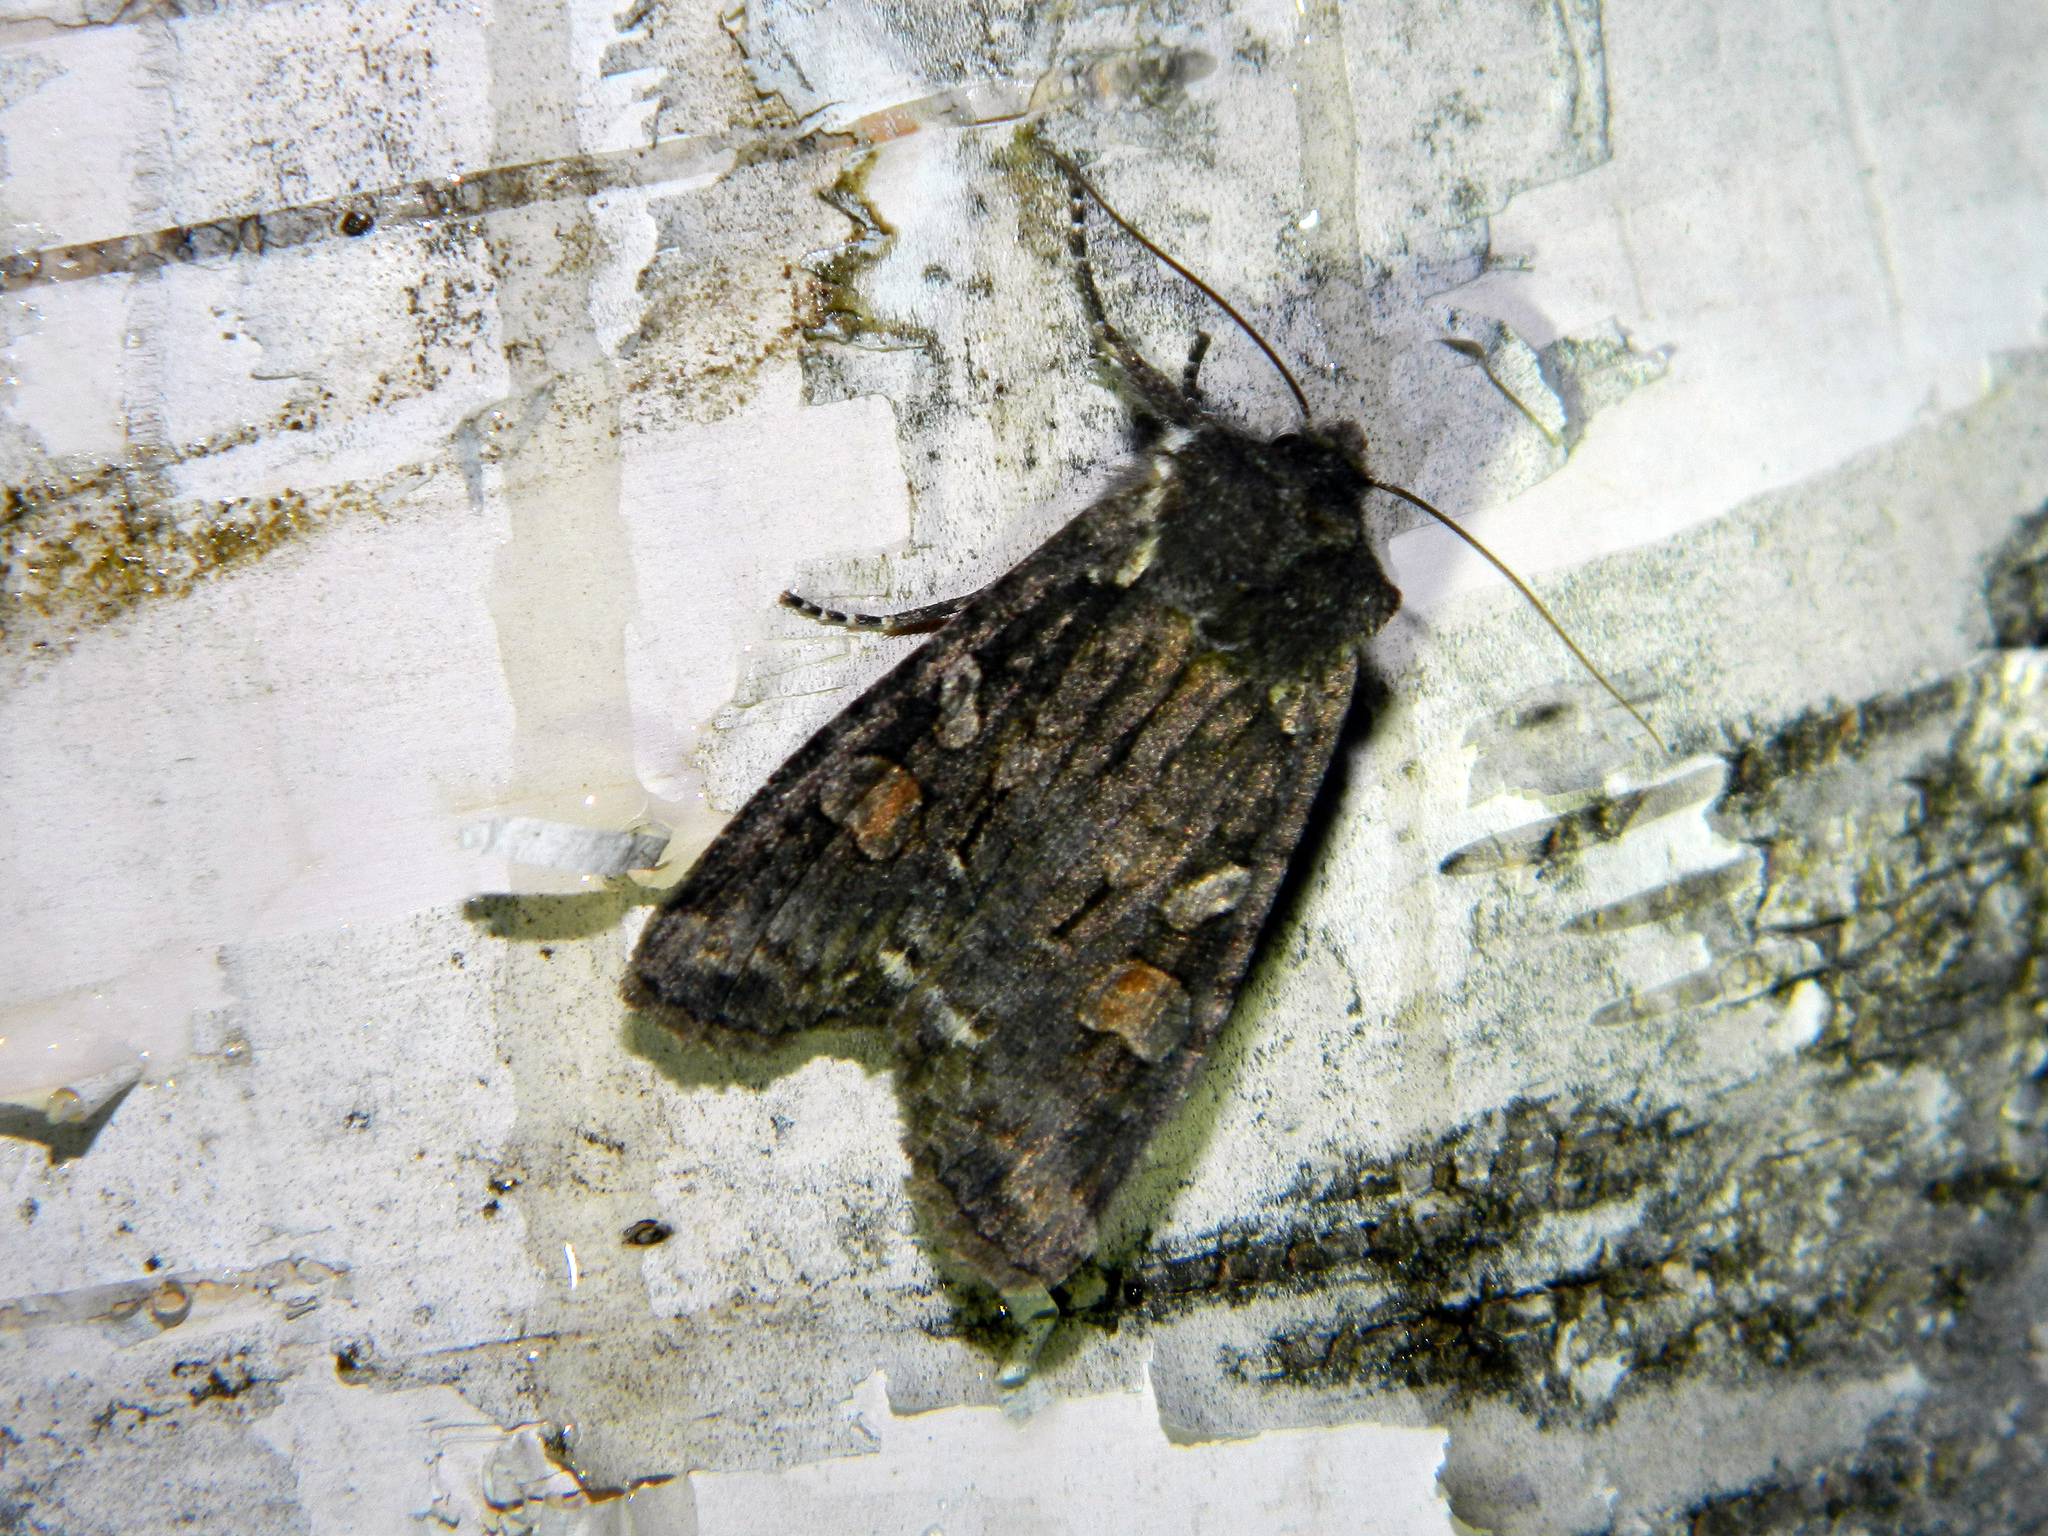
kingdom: Animalia
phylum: Arthropoda
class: Insecta
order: Lepidoptera
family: Noctuidae
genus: Lithophane
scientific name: Lithophane pexata
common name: Plush-naped pinion moth
